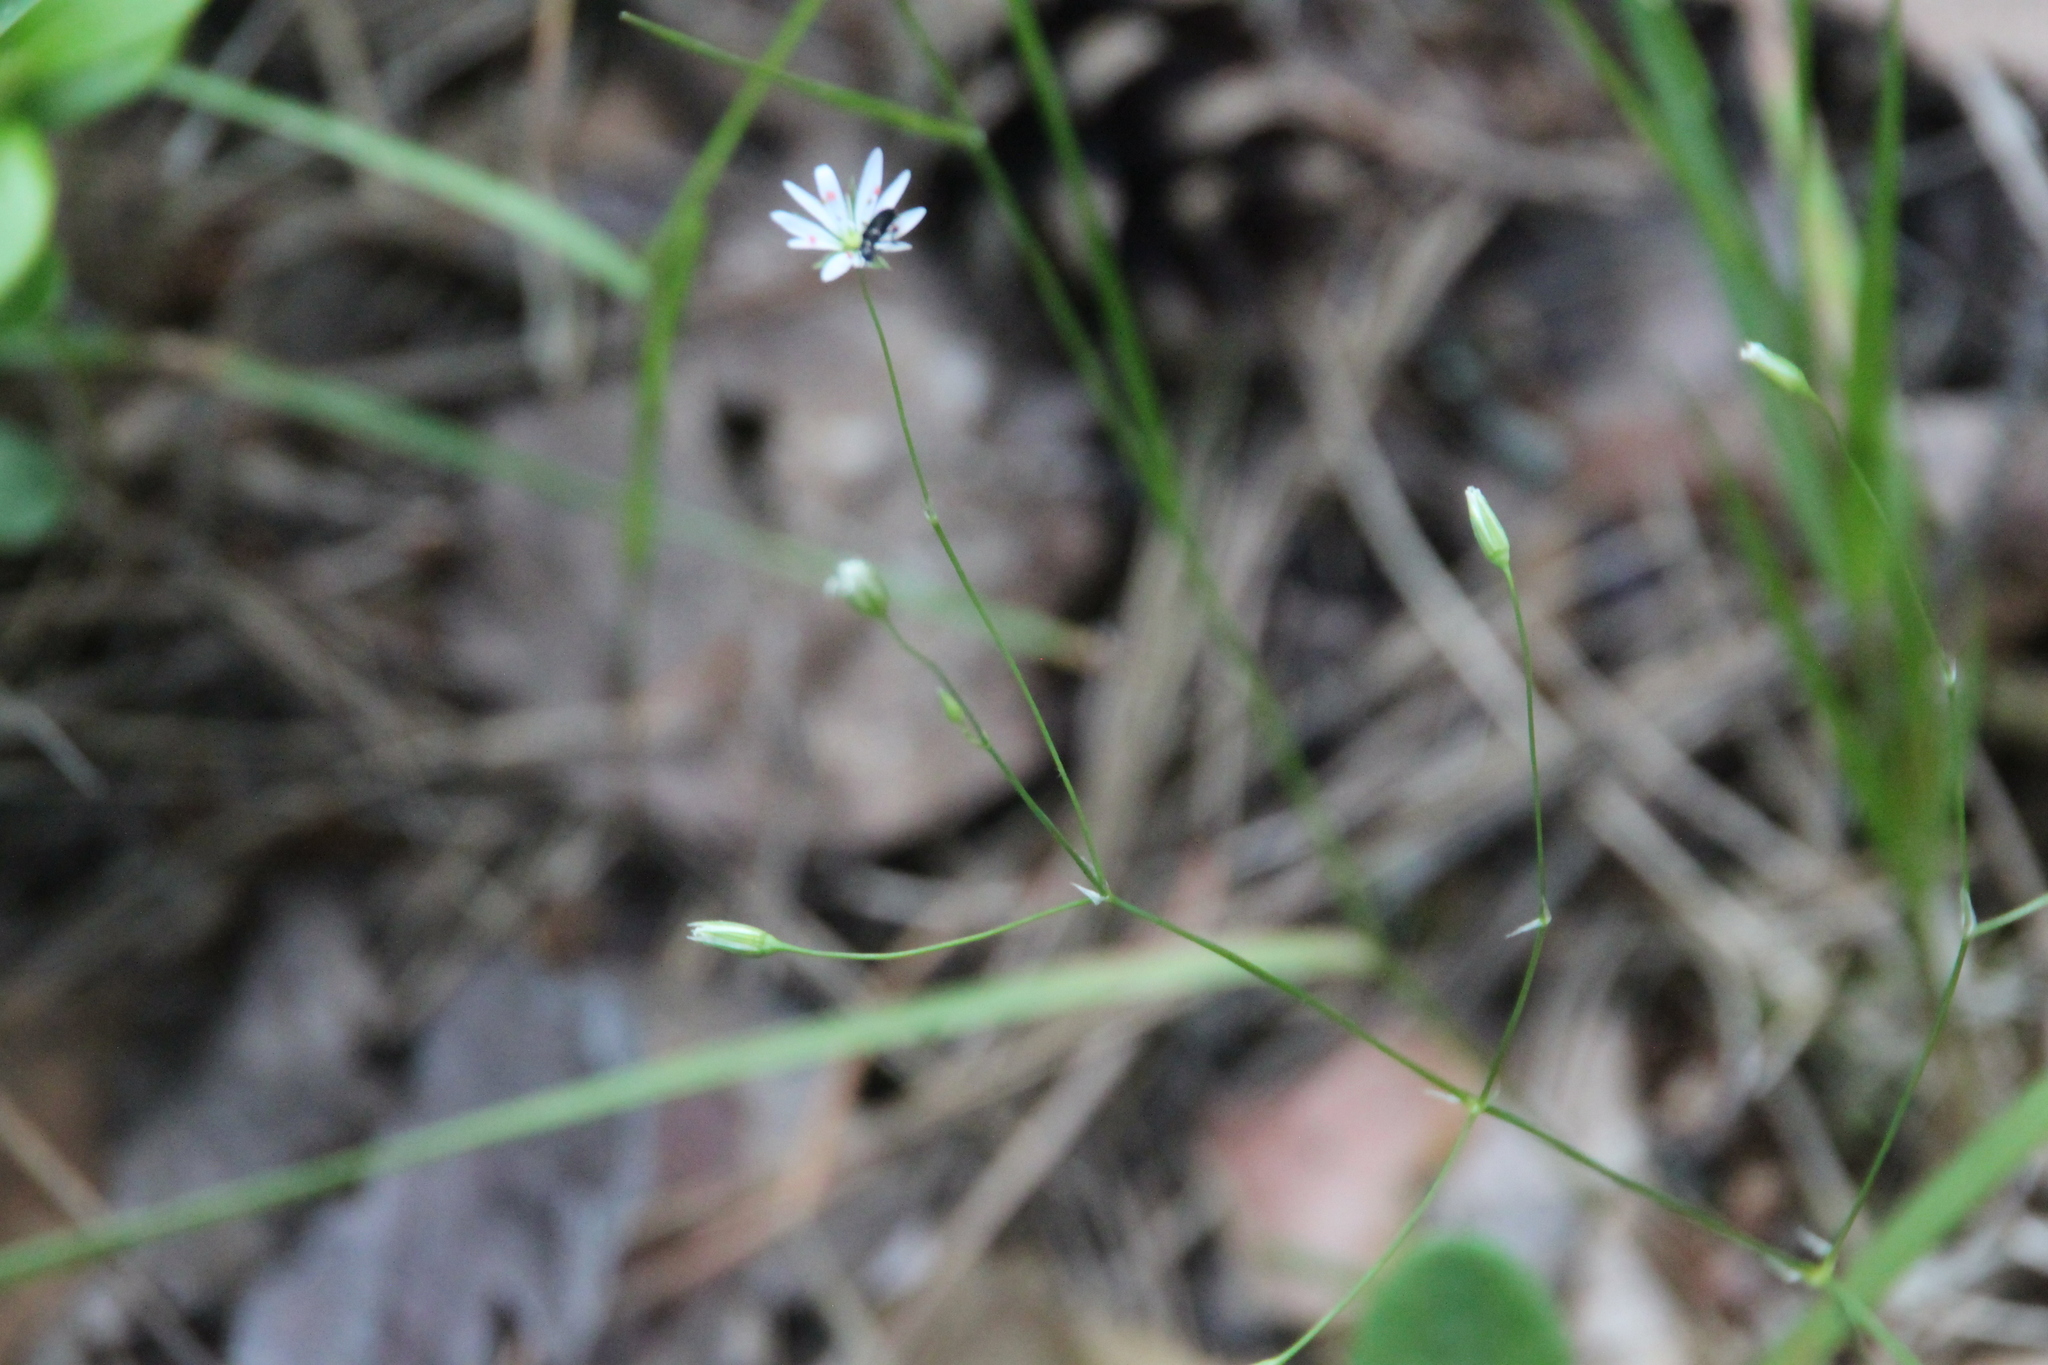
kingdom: Plantae
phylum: Tracheophyta
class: Magnoliopsida
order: Caryophyllales
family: Caryophyllaceae
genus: Stellaria
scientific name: Stellaria graminea
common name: Grass-like starwort
